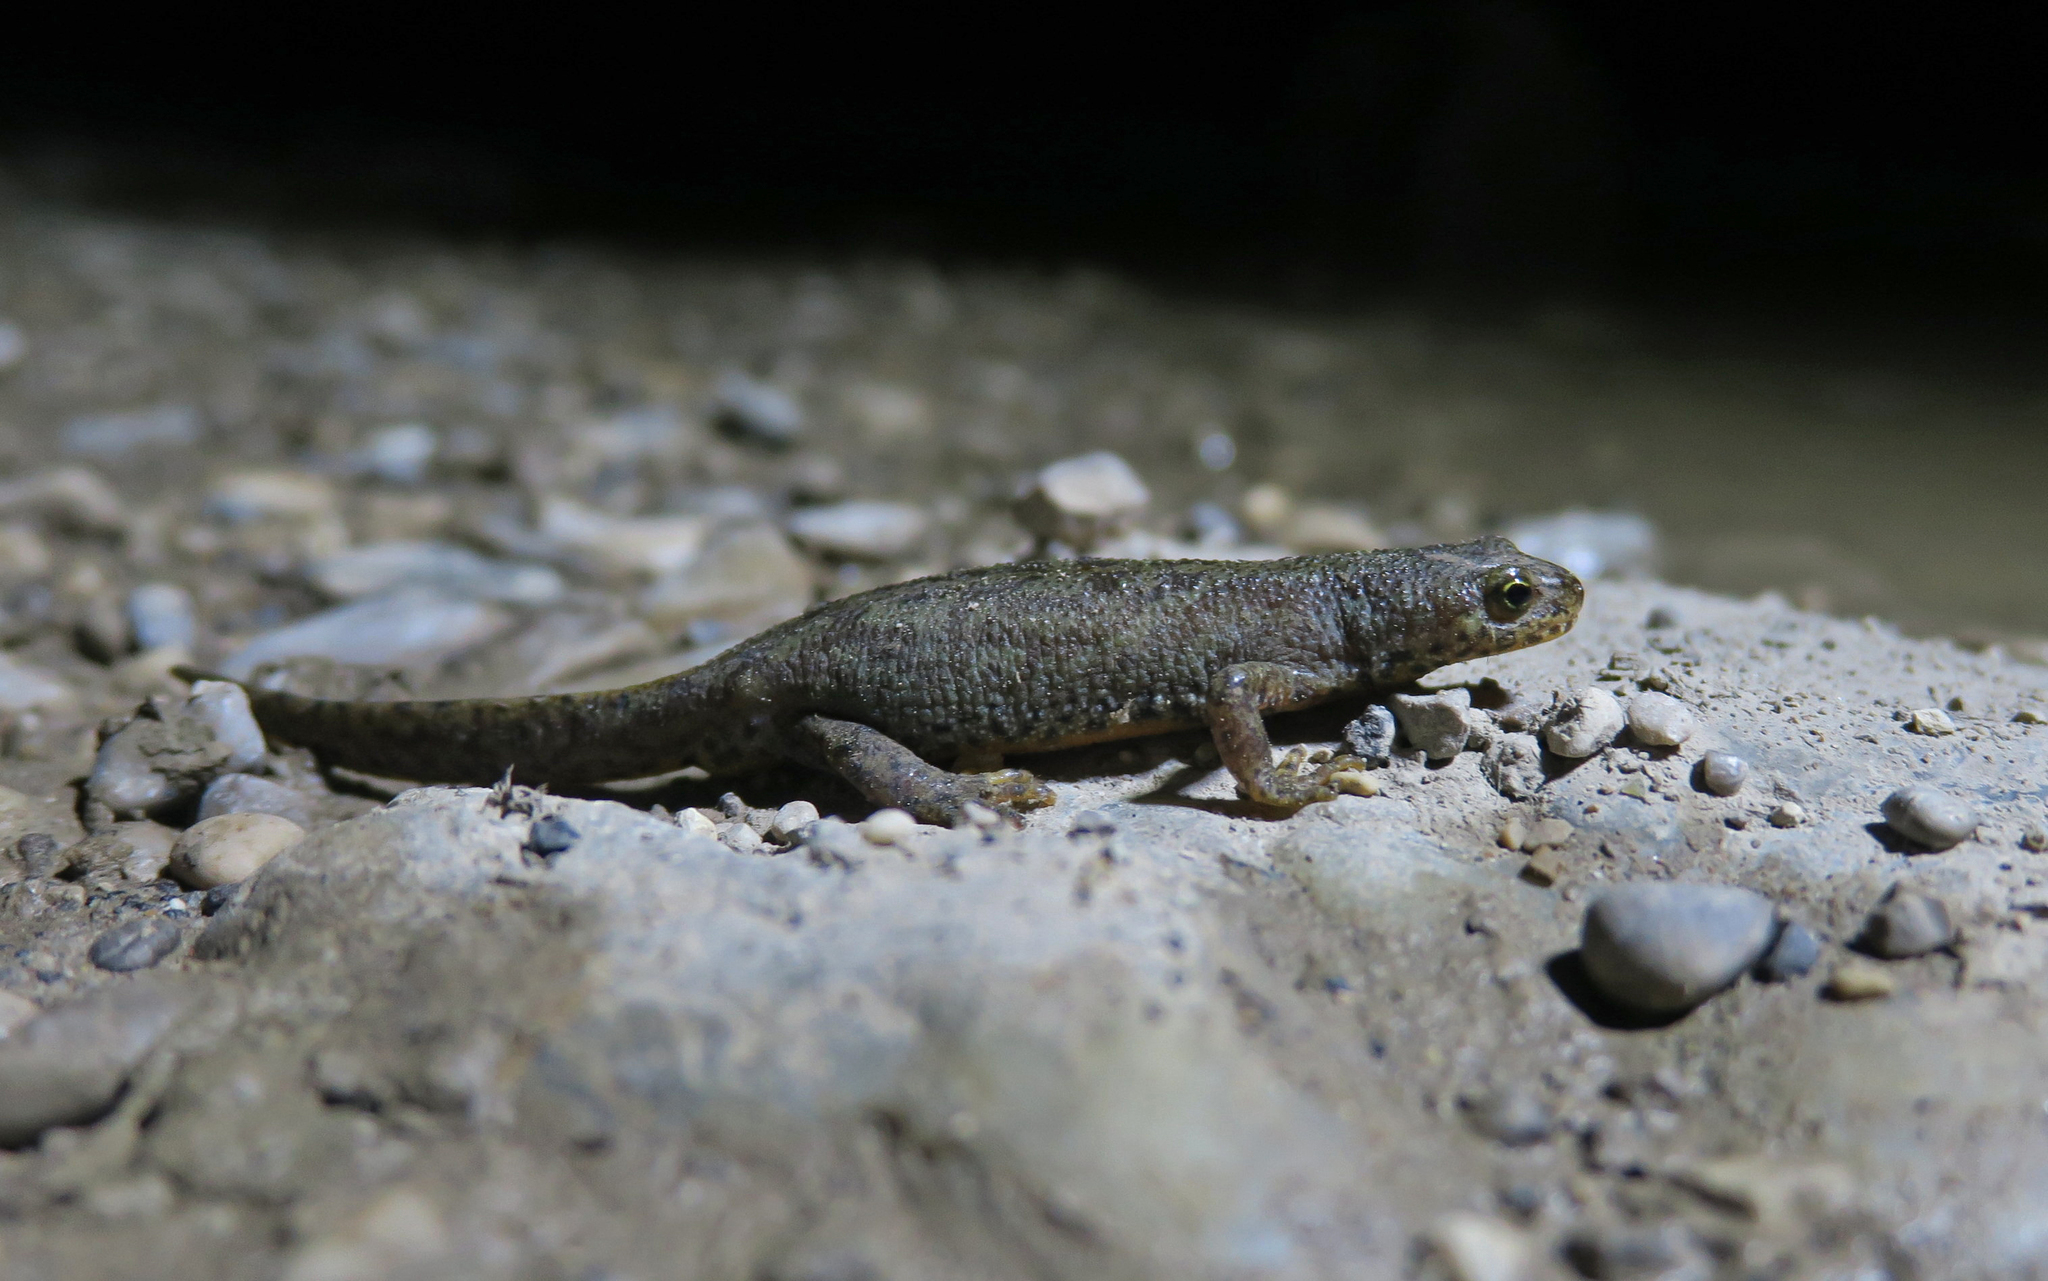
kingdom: Animalia
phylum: Chordata
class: Amphibia
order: Caudata
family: Salamandridae
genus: Ichthyosaura
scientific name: Ichthyosaura alpestris
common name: Alpine newt
